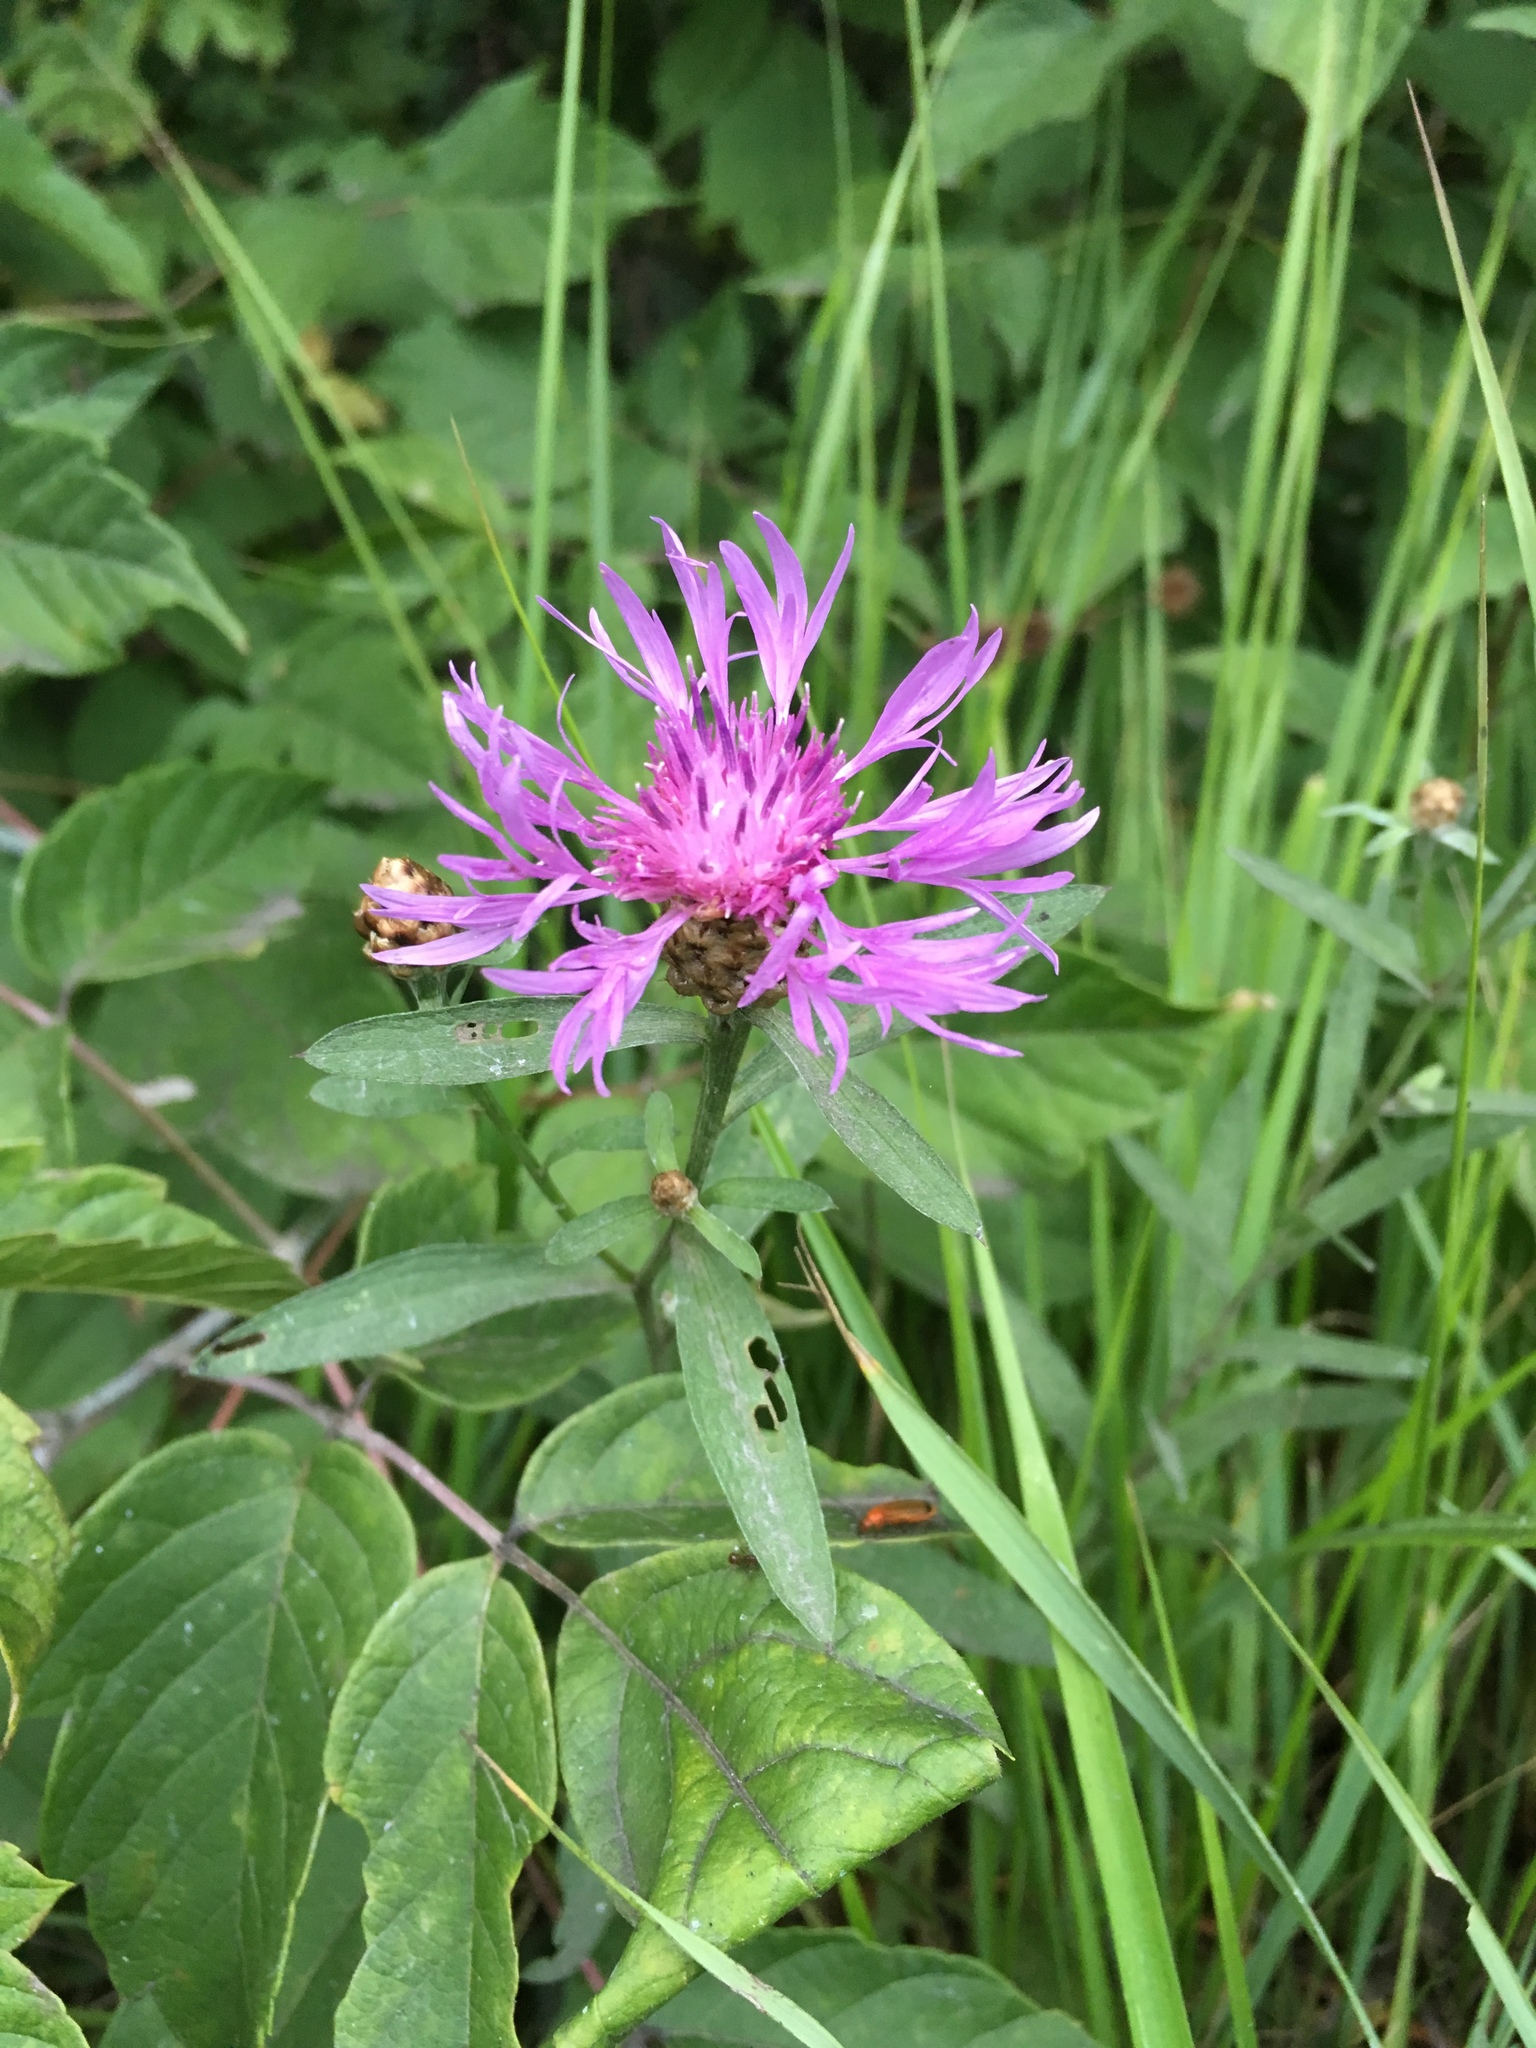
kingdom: Plantae
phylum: Tracheophyta
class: Magnoliopsida
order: Asterales
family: Asteraceae
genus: Centaurea
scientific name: Centaurea jacea
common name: Brown knapweed
